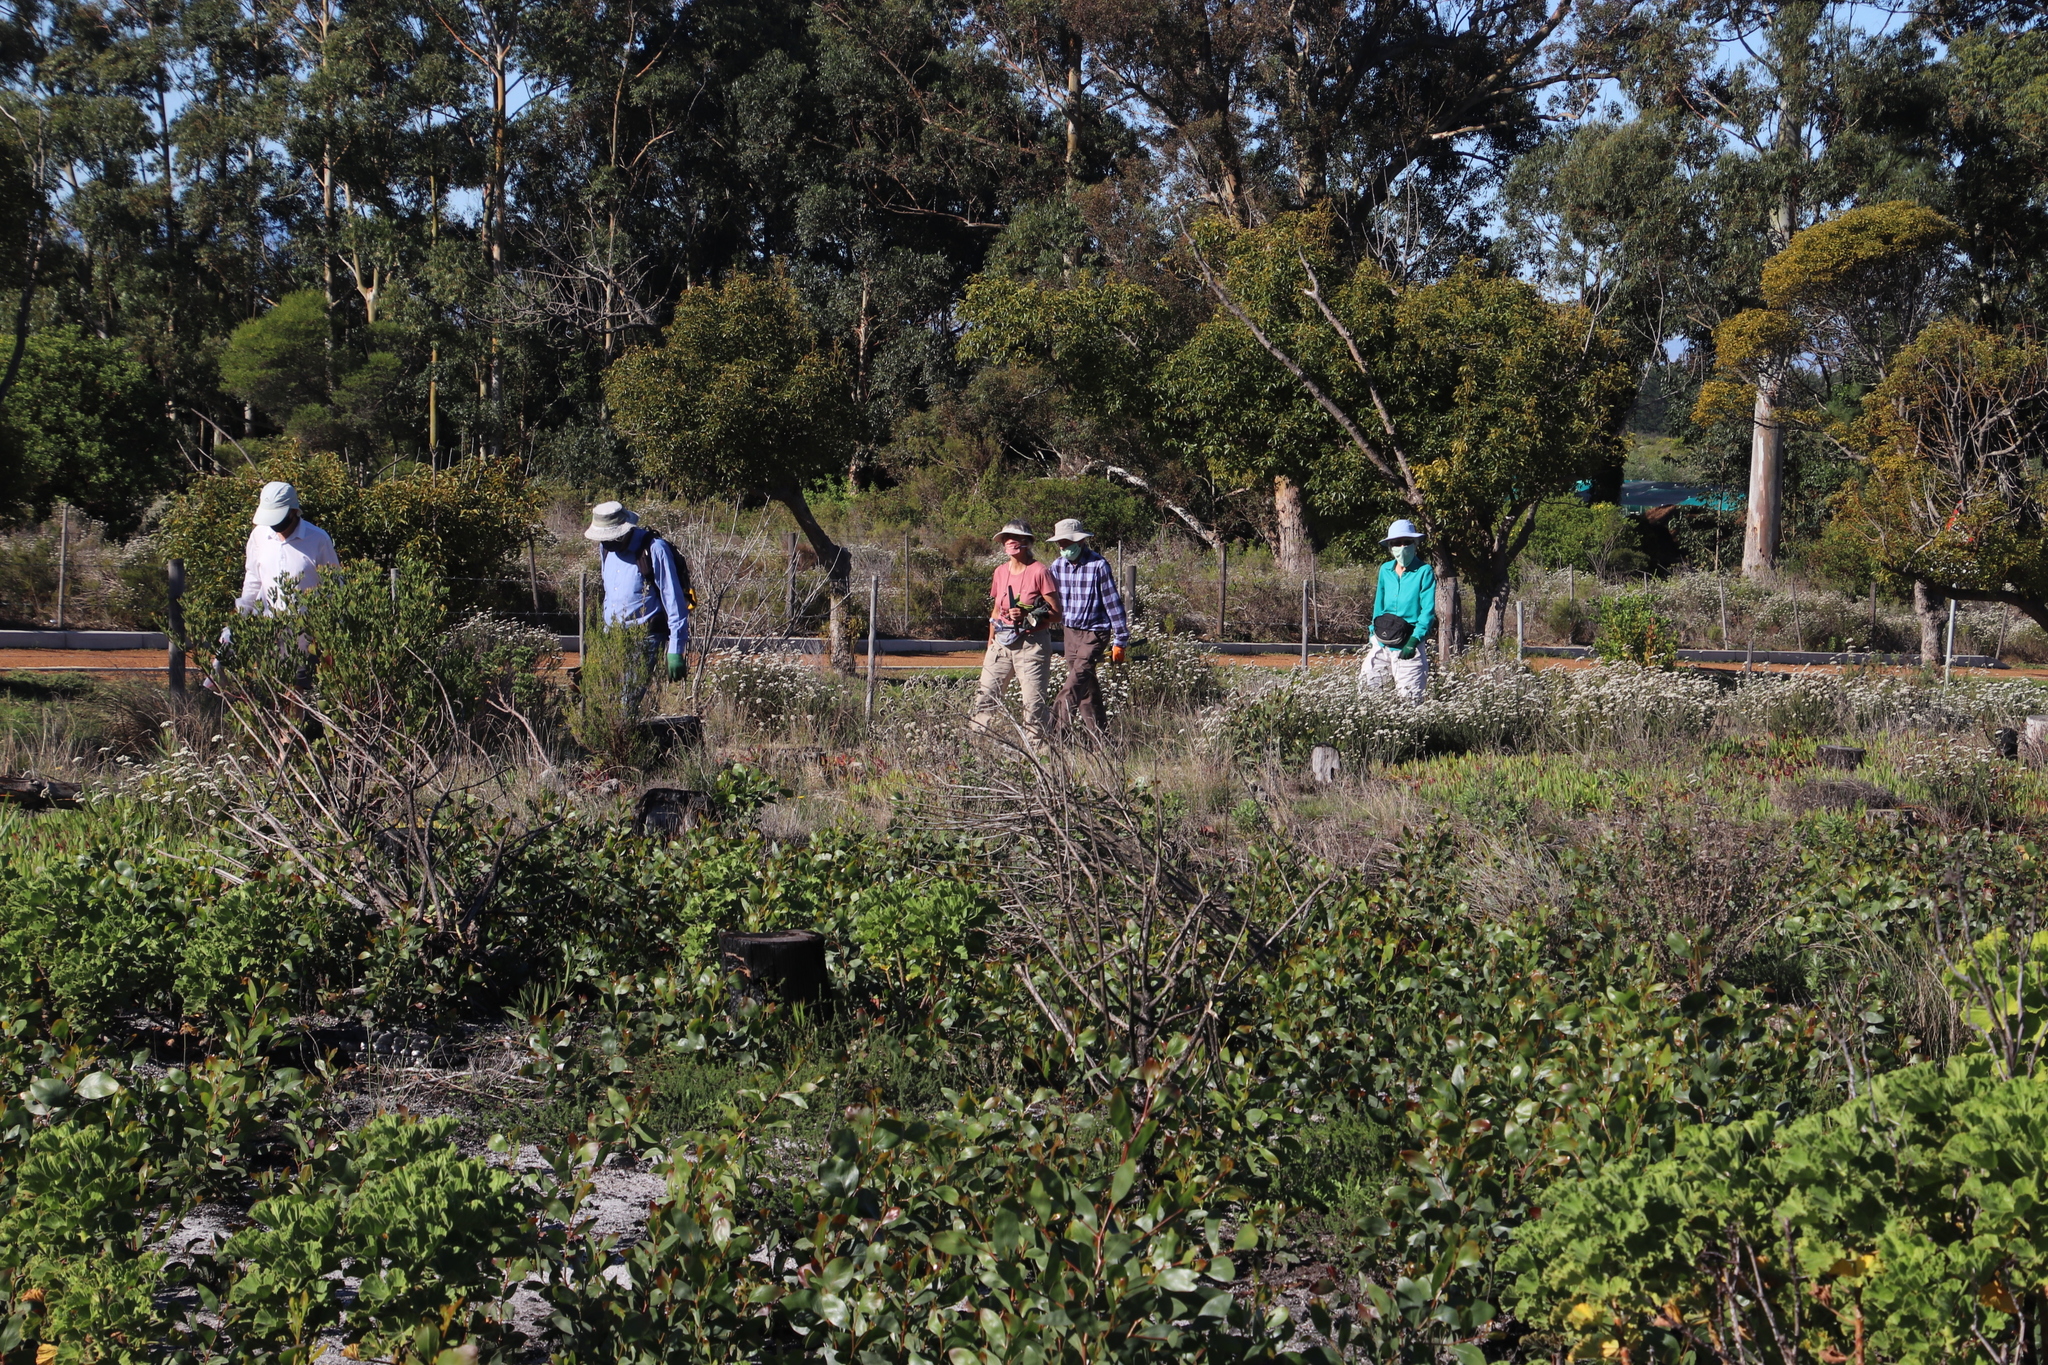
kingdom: Plantae
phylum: Tracheophyta
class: Magnoliopsida
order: Fabales
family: Fabaceae
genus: Acacia
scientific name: Acacia pycnantha
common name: Golden wattle
